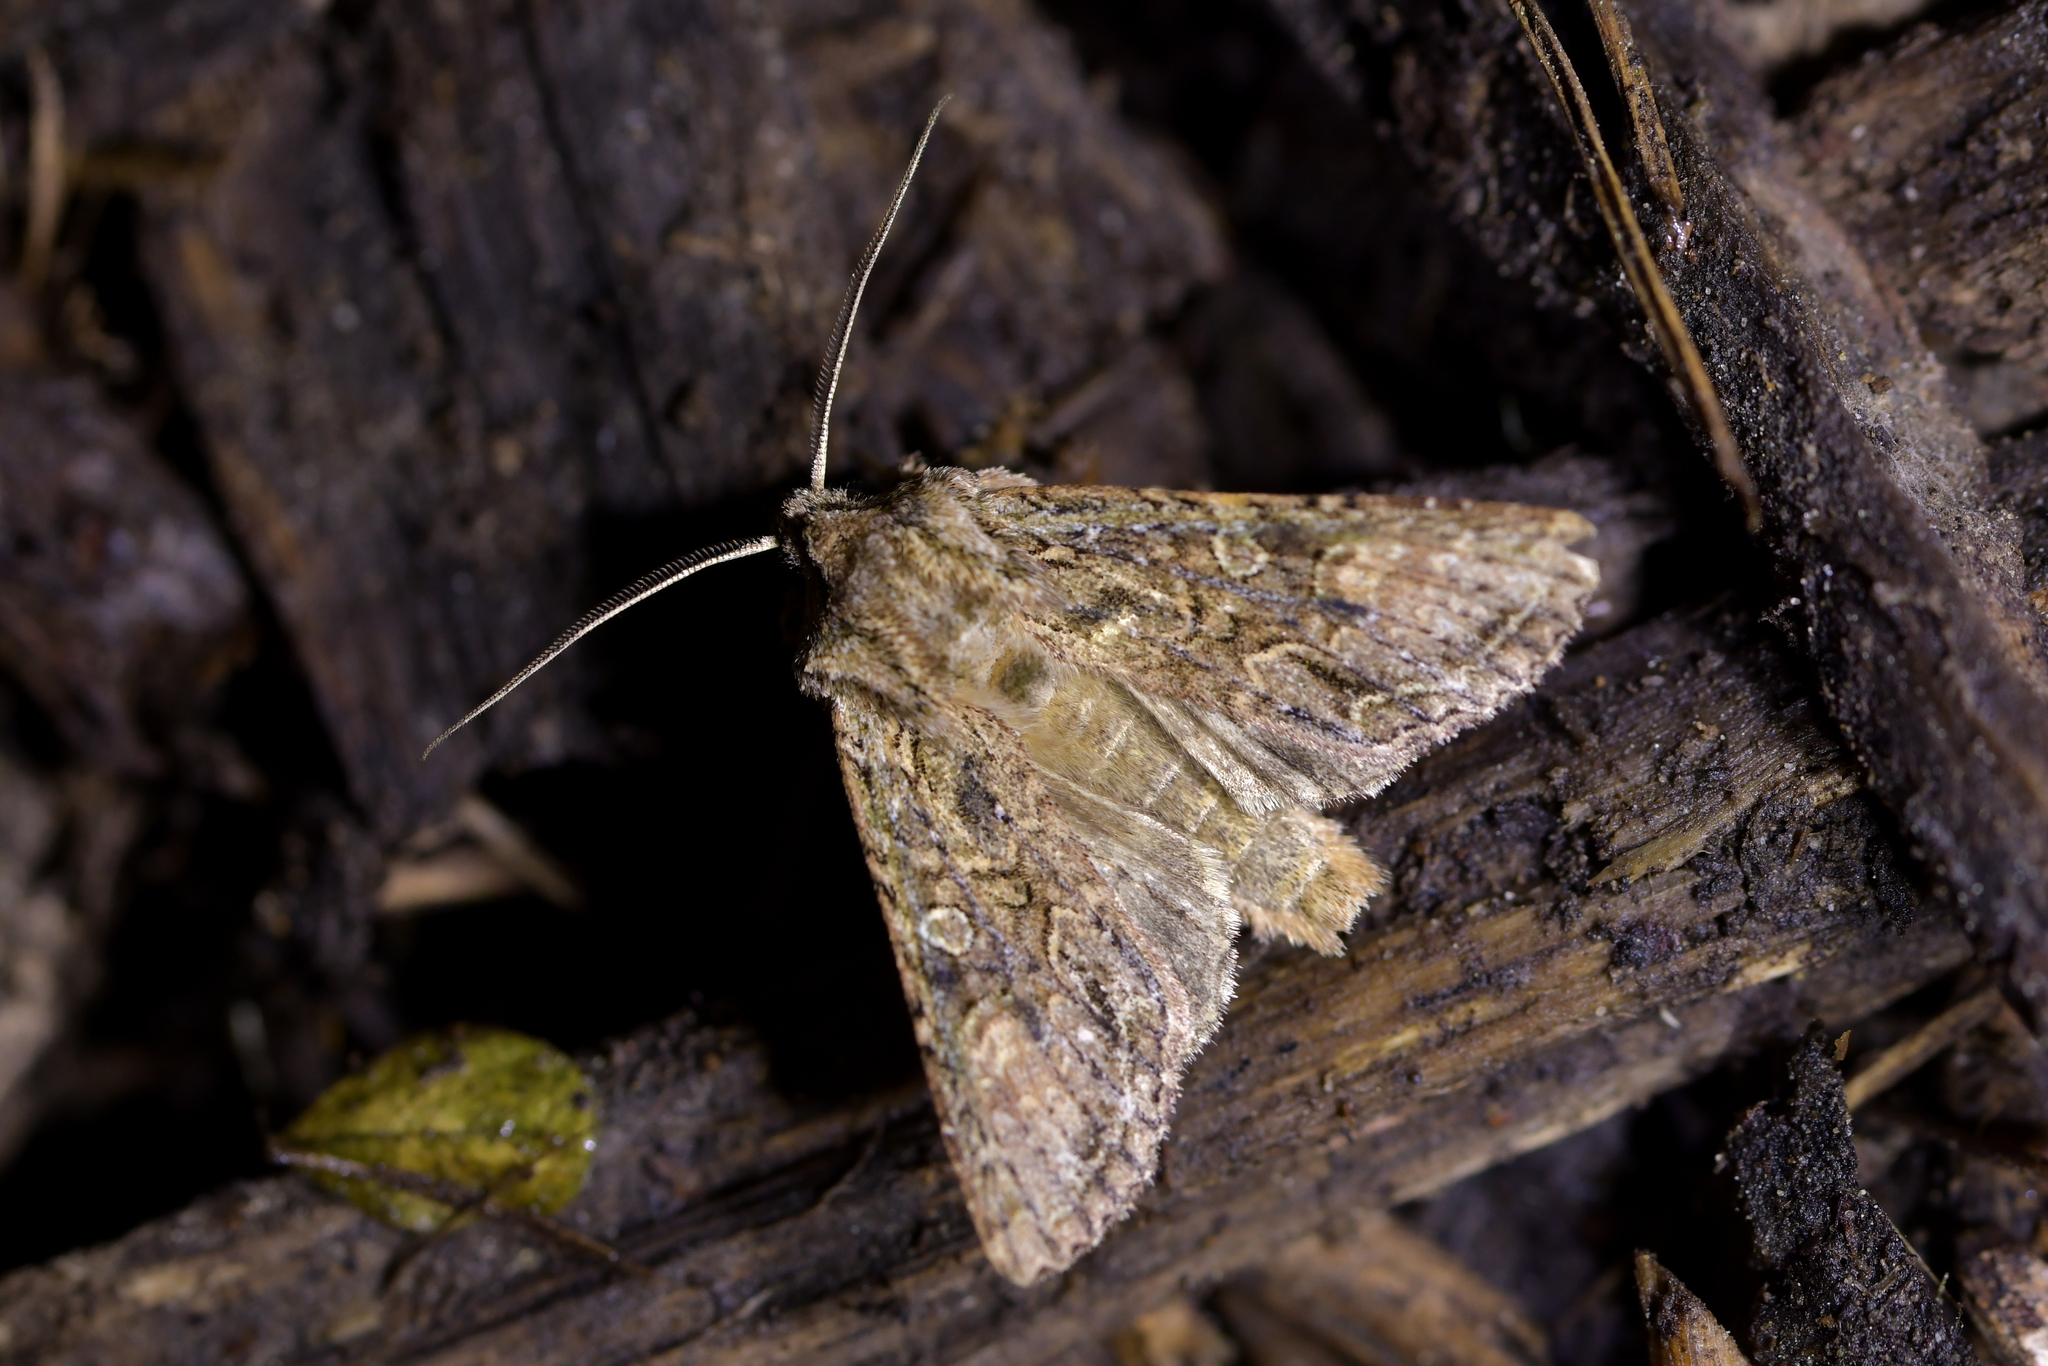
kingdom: Animalia
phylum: Arthropoda
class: Insecta
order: Lepidoptera
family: Noctuidae
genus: Ichneutica
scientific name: Ichneutica mutans
